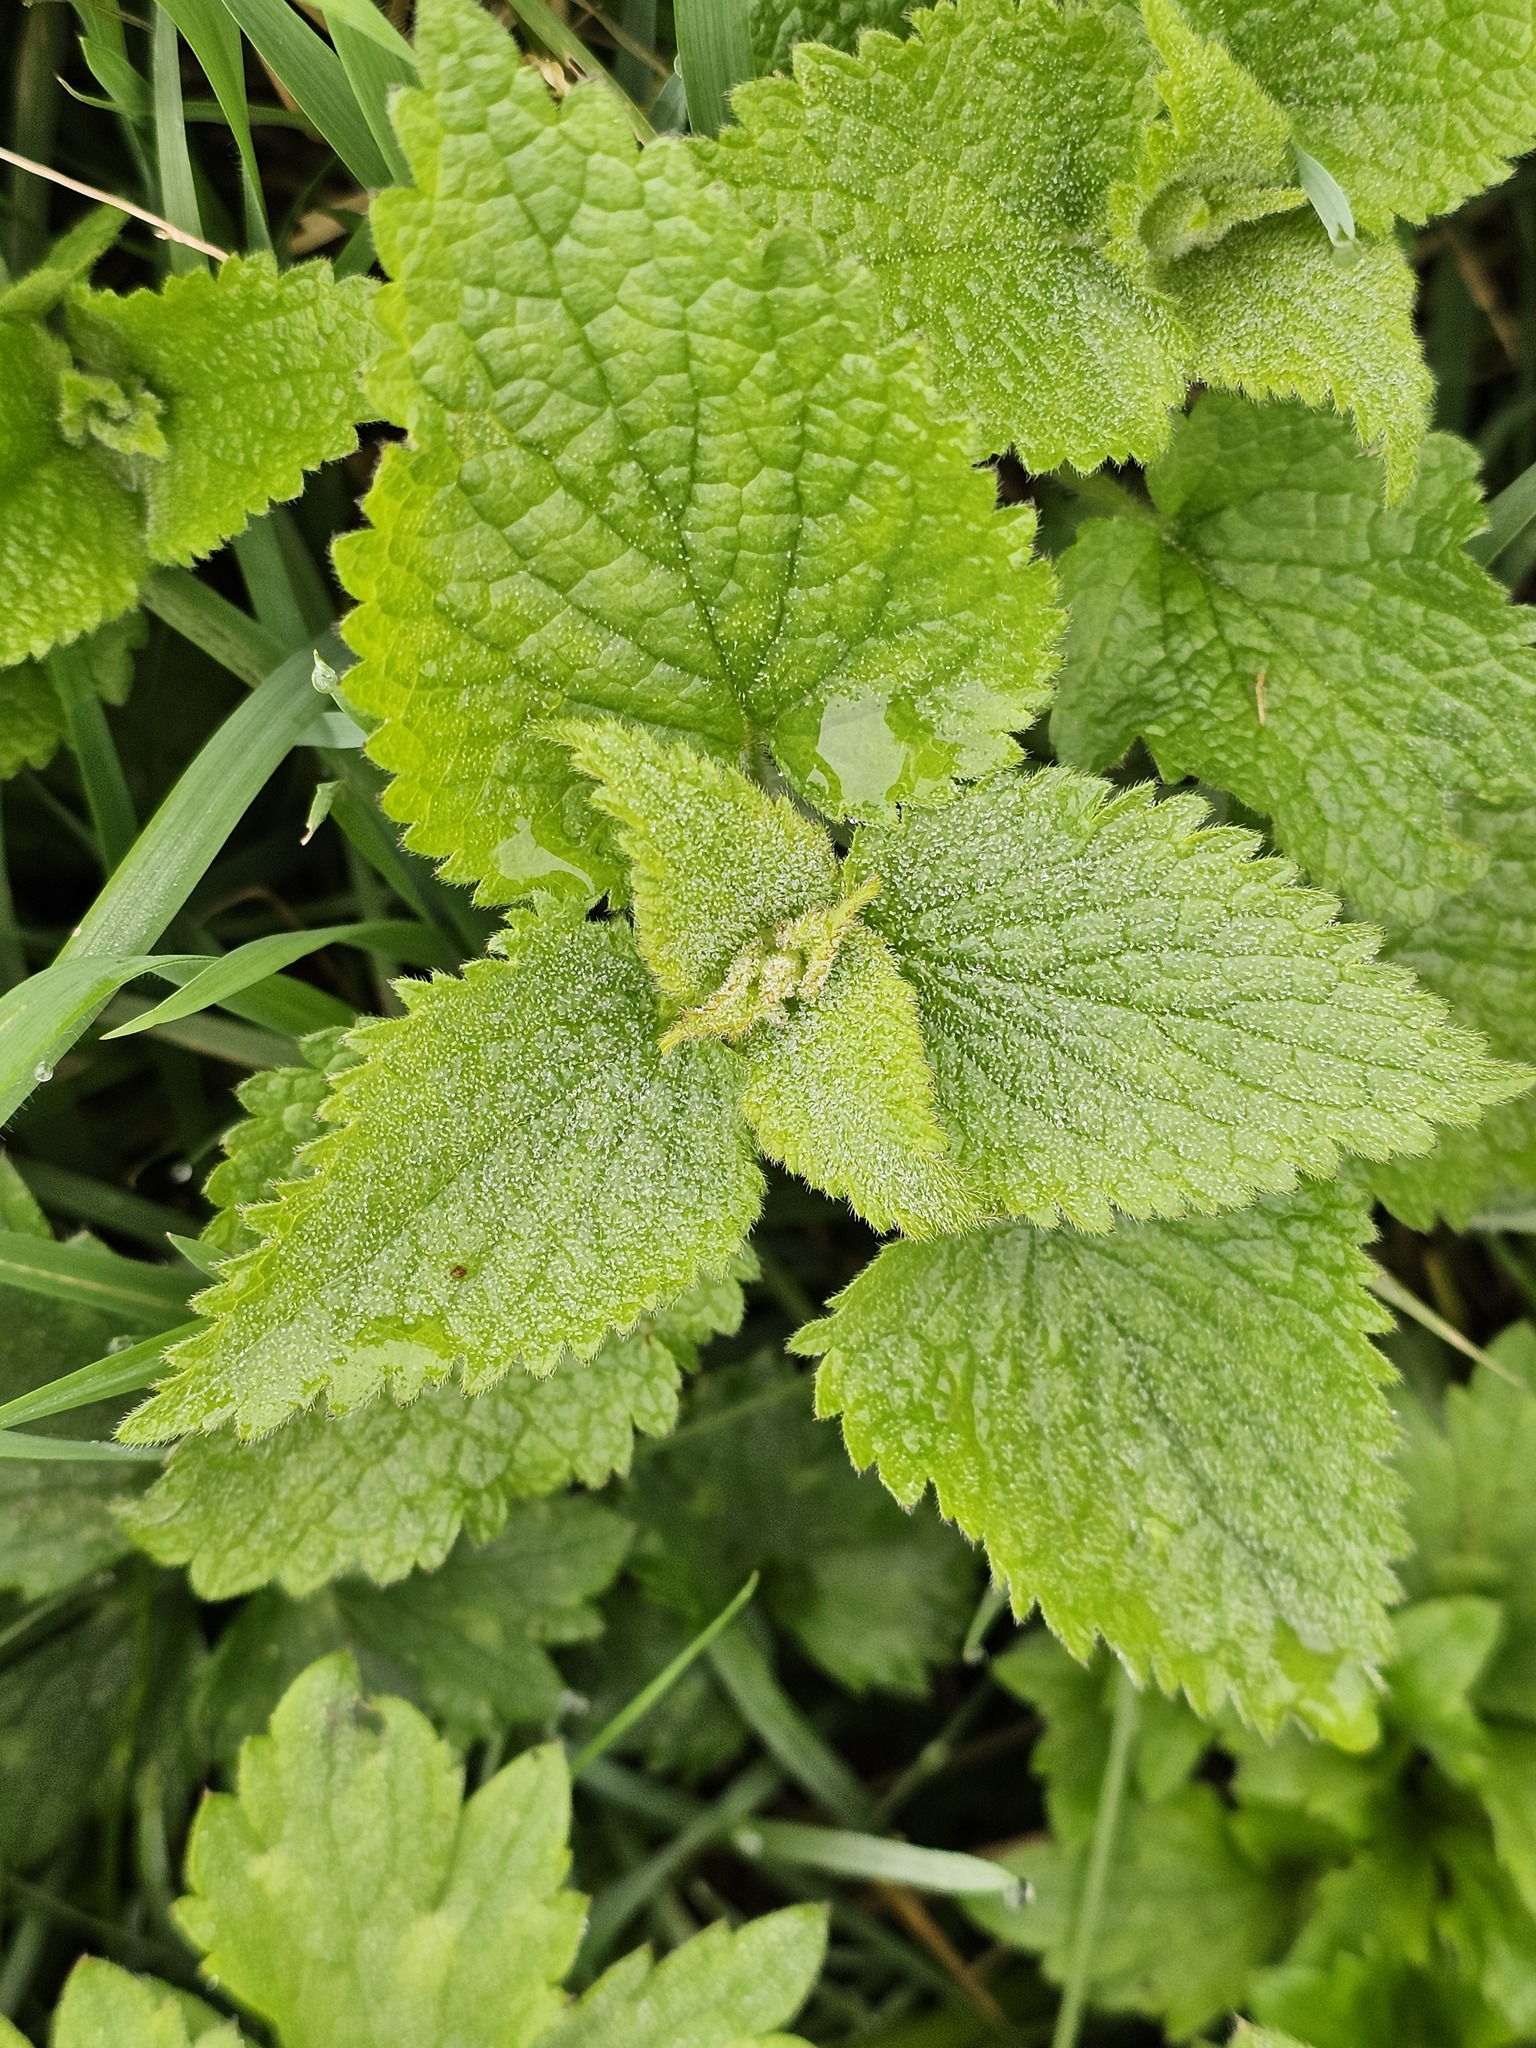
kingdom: Plantae
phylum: Tracheophyta
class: Magnoliopsida
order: Lamiales
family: Lamiaceae
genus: Lamium
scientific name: Lamium album
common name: White dead-nettle
